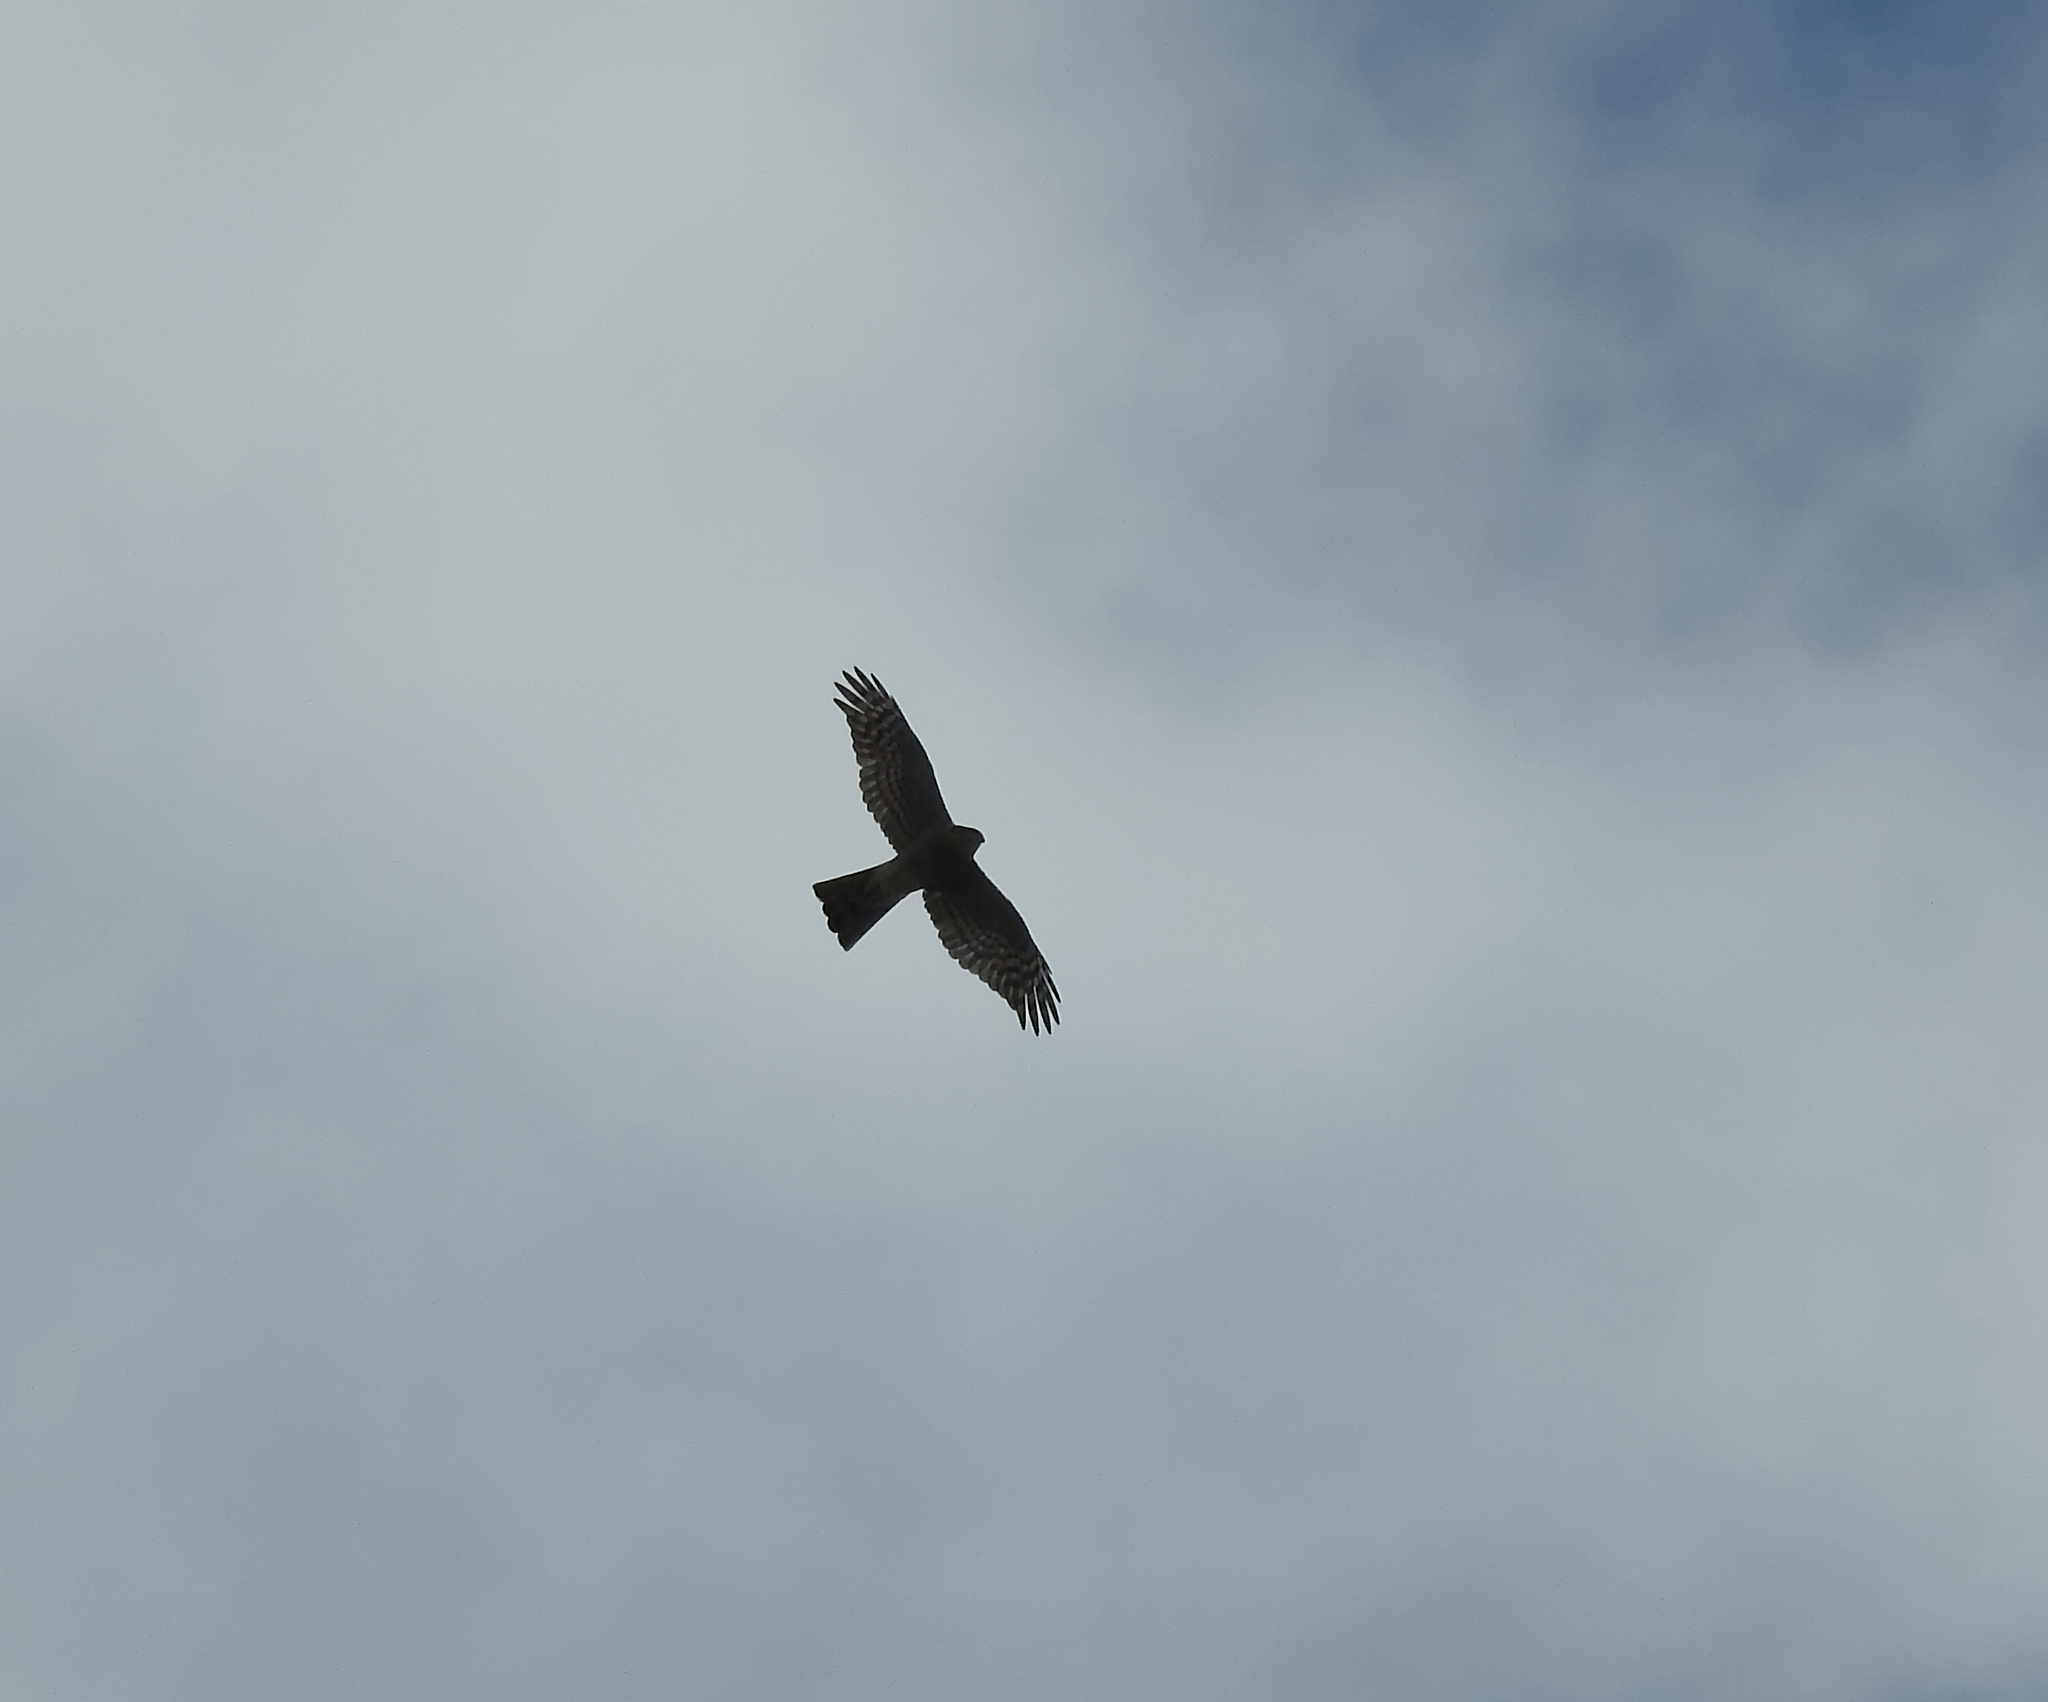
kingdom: Animalia
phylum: Chordata
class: Aves
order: Accipitriformes
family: Accipitridae
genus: Accipiter
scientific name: Accipiter nisus
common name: Eurasian sparrowhawk
